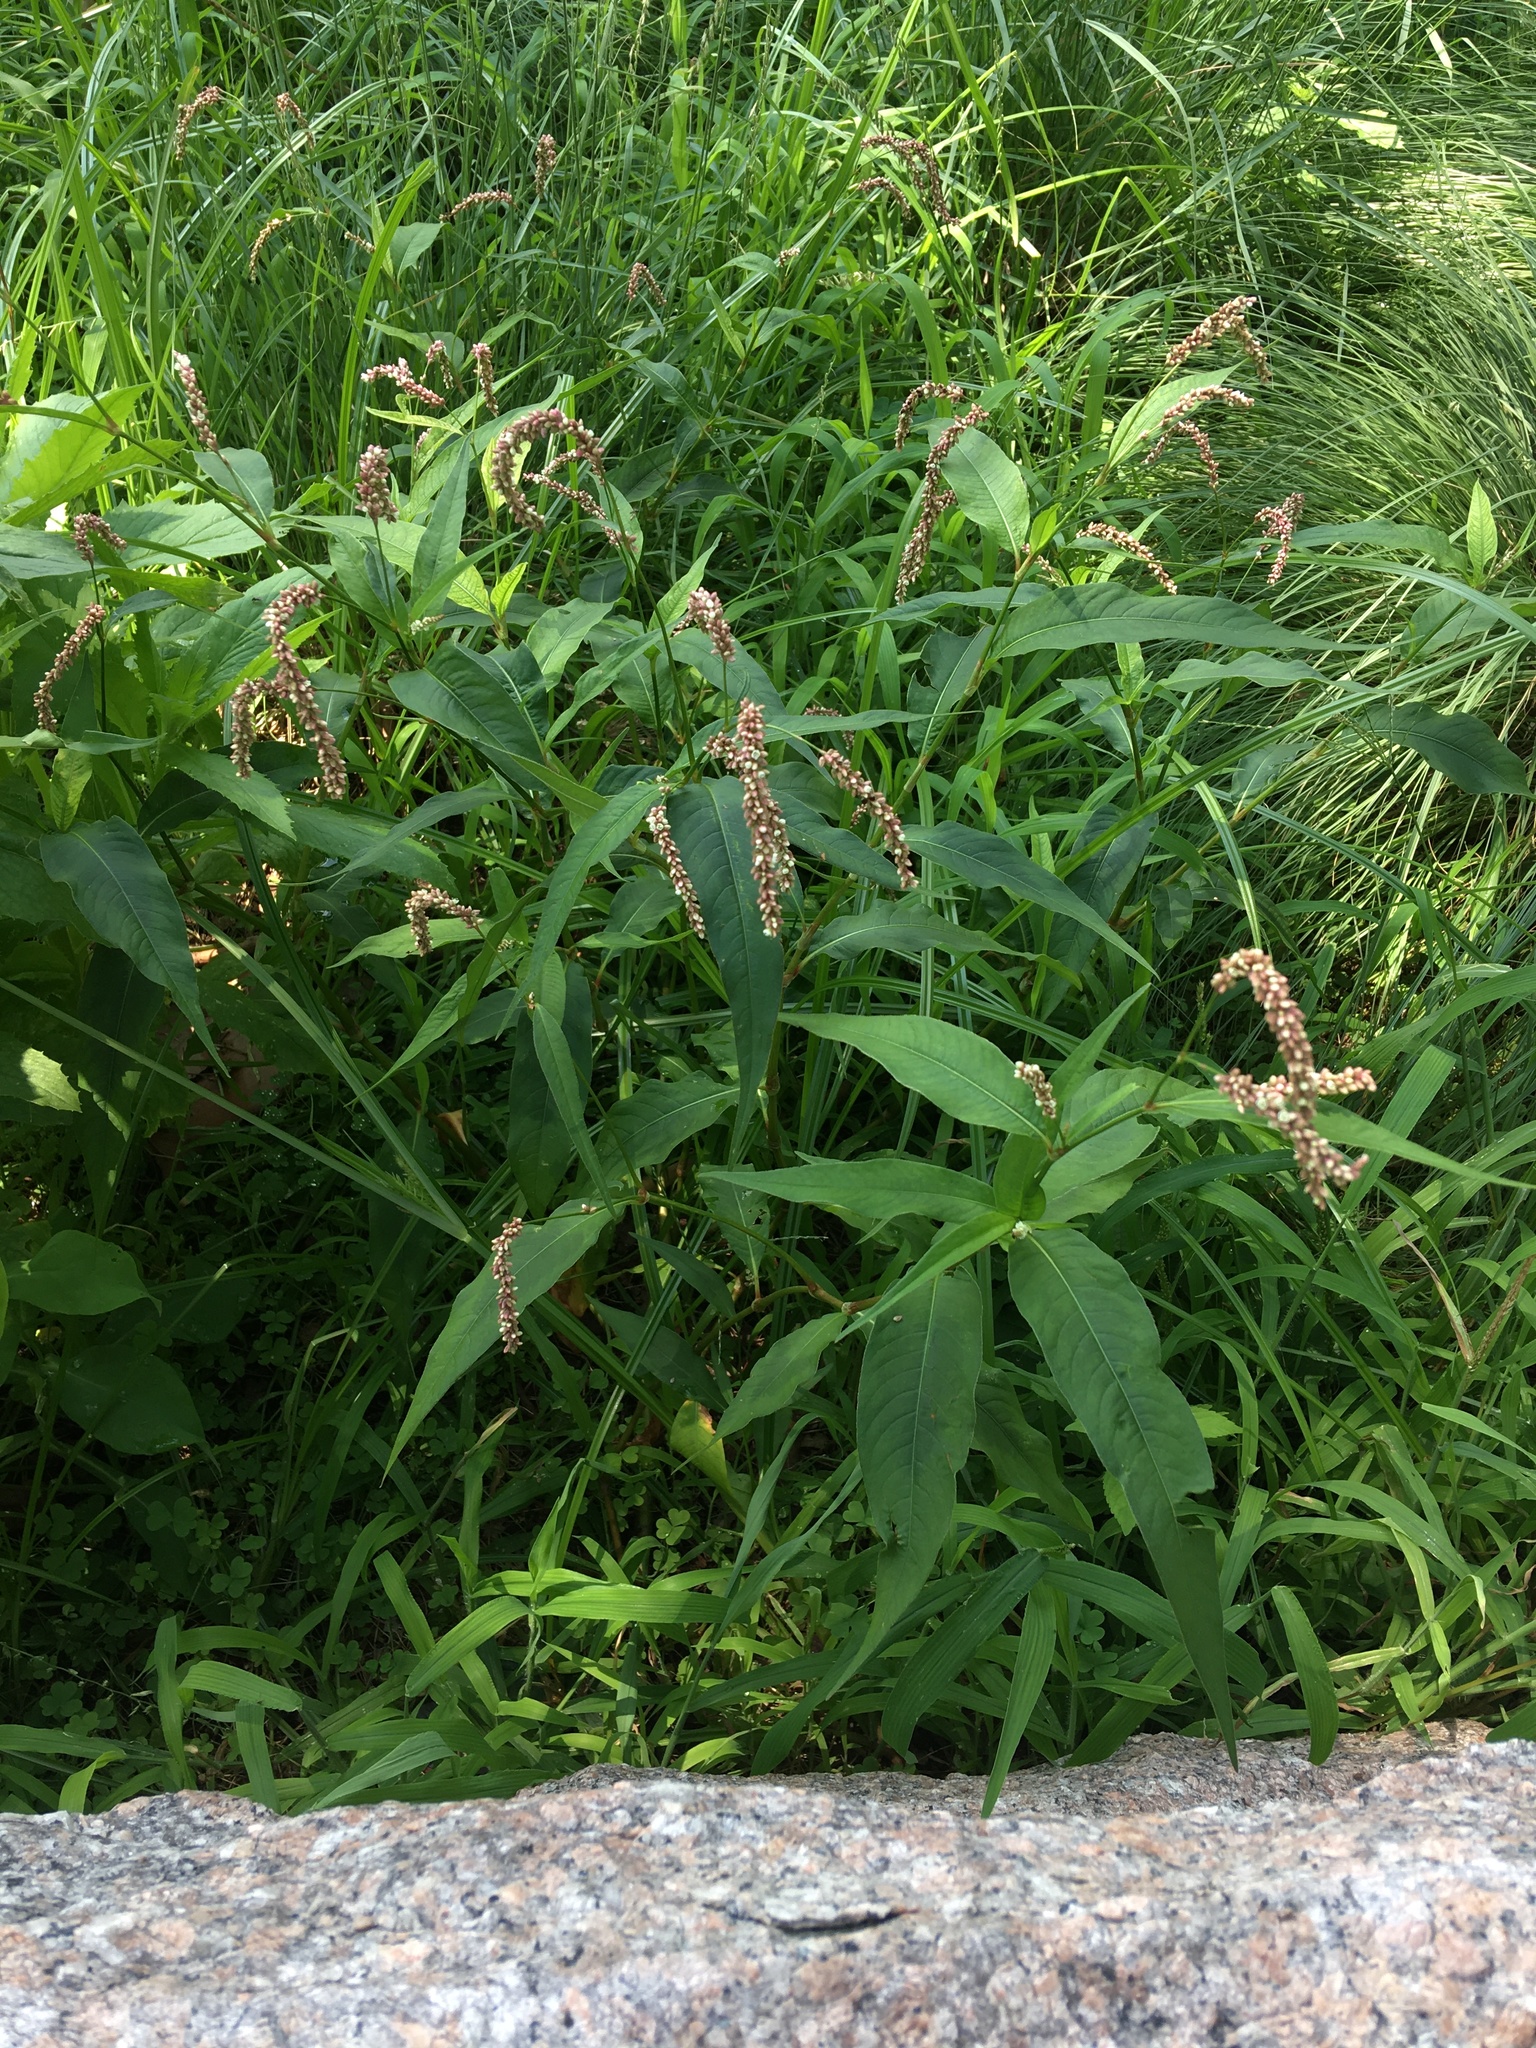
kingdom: Plantae
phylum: Tracheophyta
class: Magnoliopsida
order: Caryophyllales
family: Polygonaceae
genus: Persicaria
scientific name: Persicaria extremiorientalis
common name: Far-eastern smartweed
